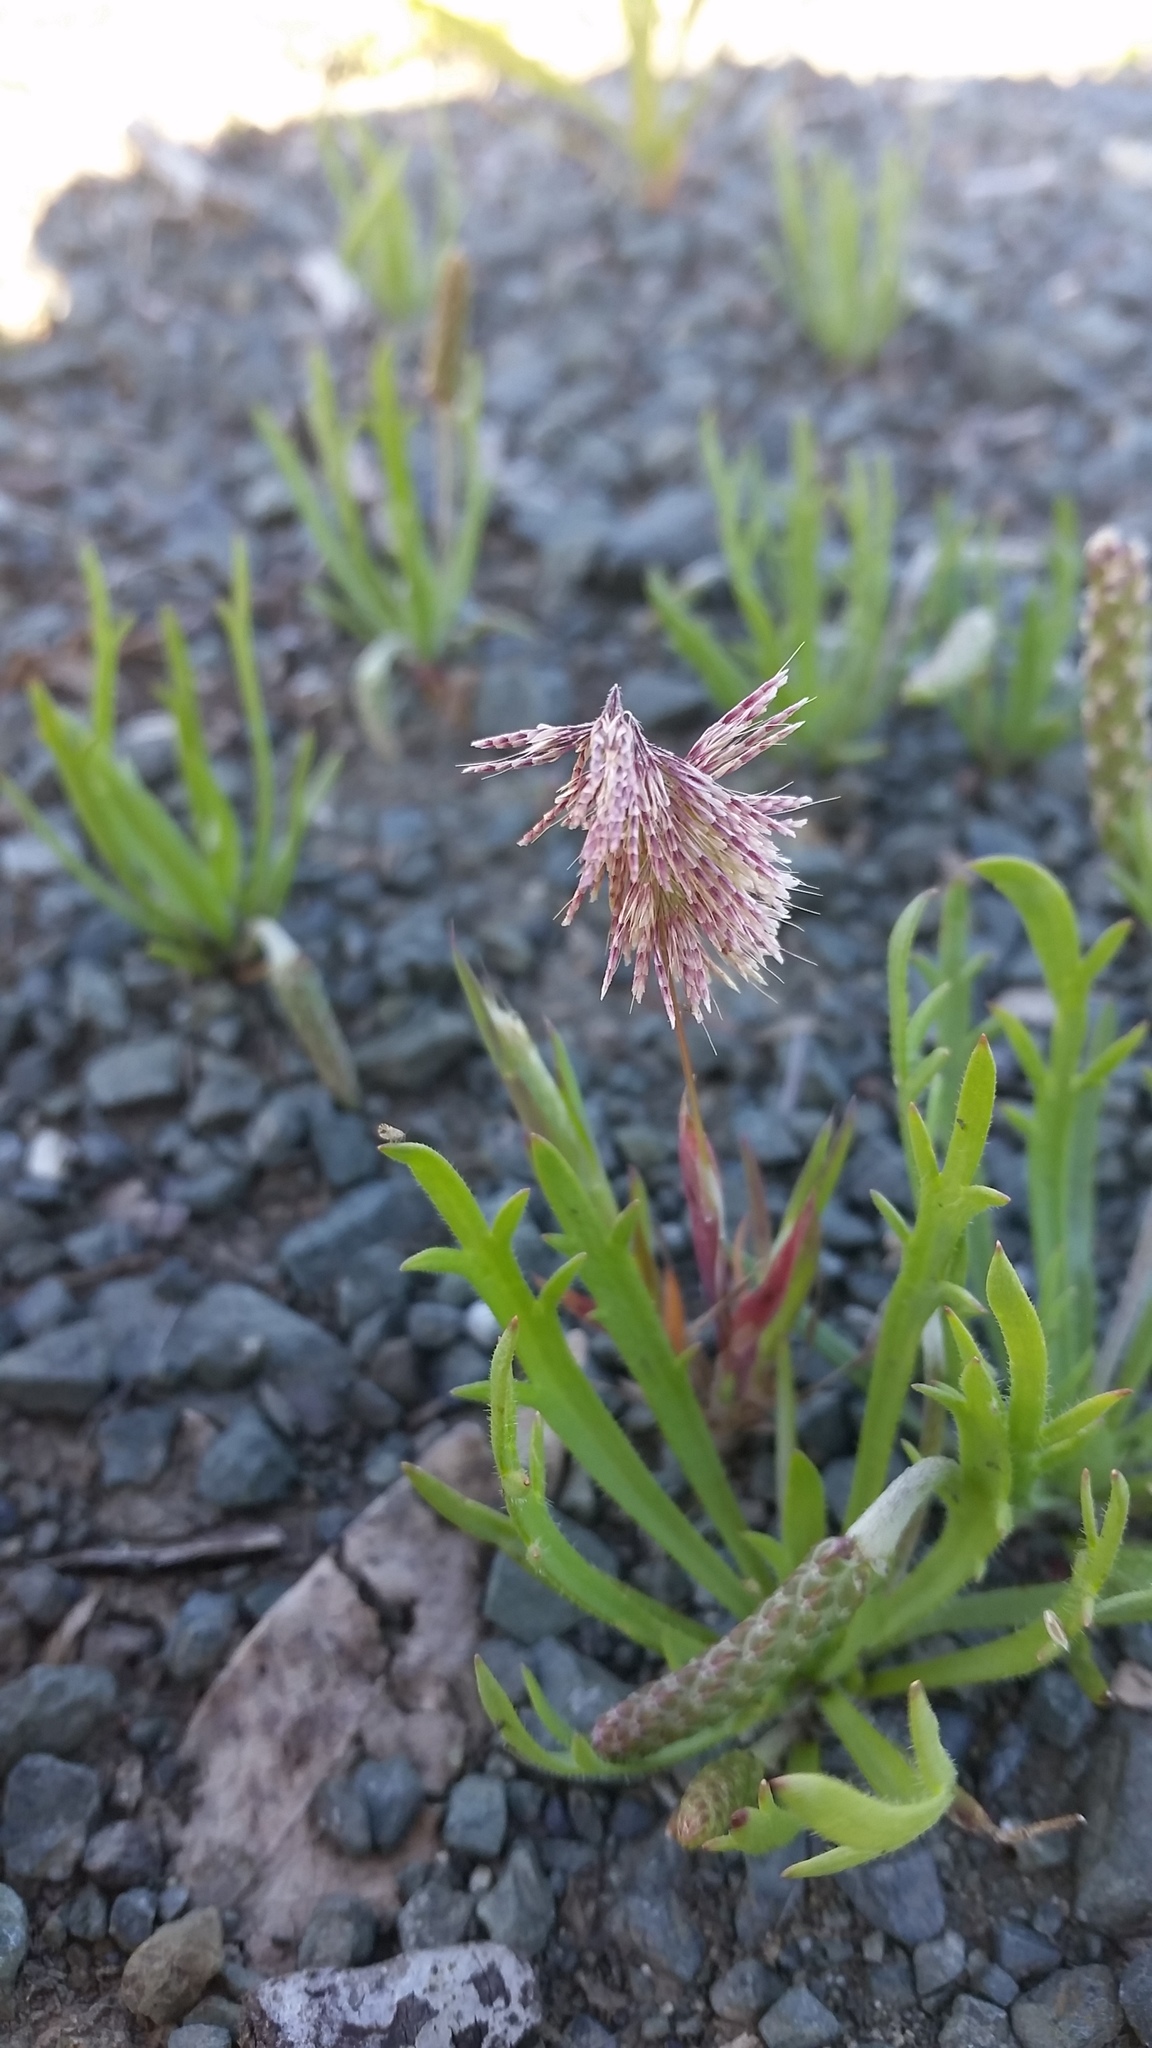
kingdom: Plantae
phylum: Tracheophyta
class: Liliopsida
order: Poales
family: Poaceae
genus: Lamarckia
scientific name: Lamarckia aurea
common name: Golden dog's-tail
